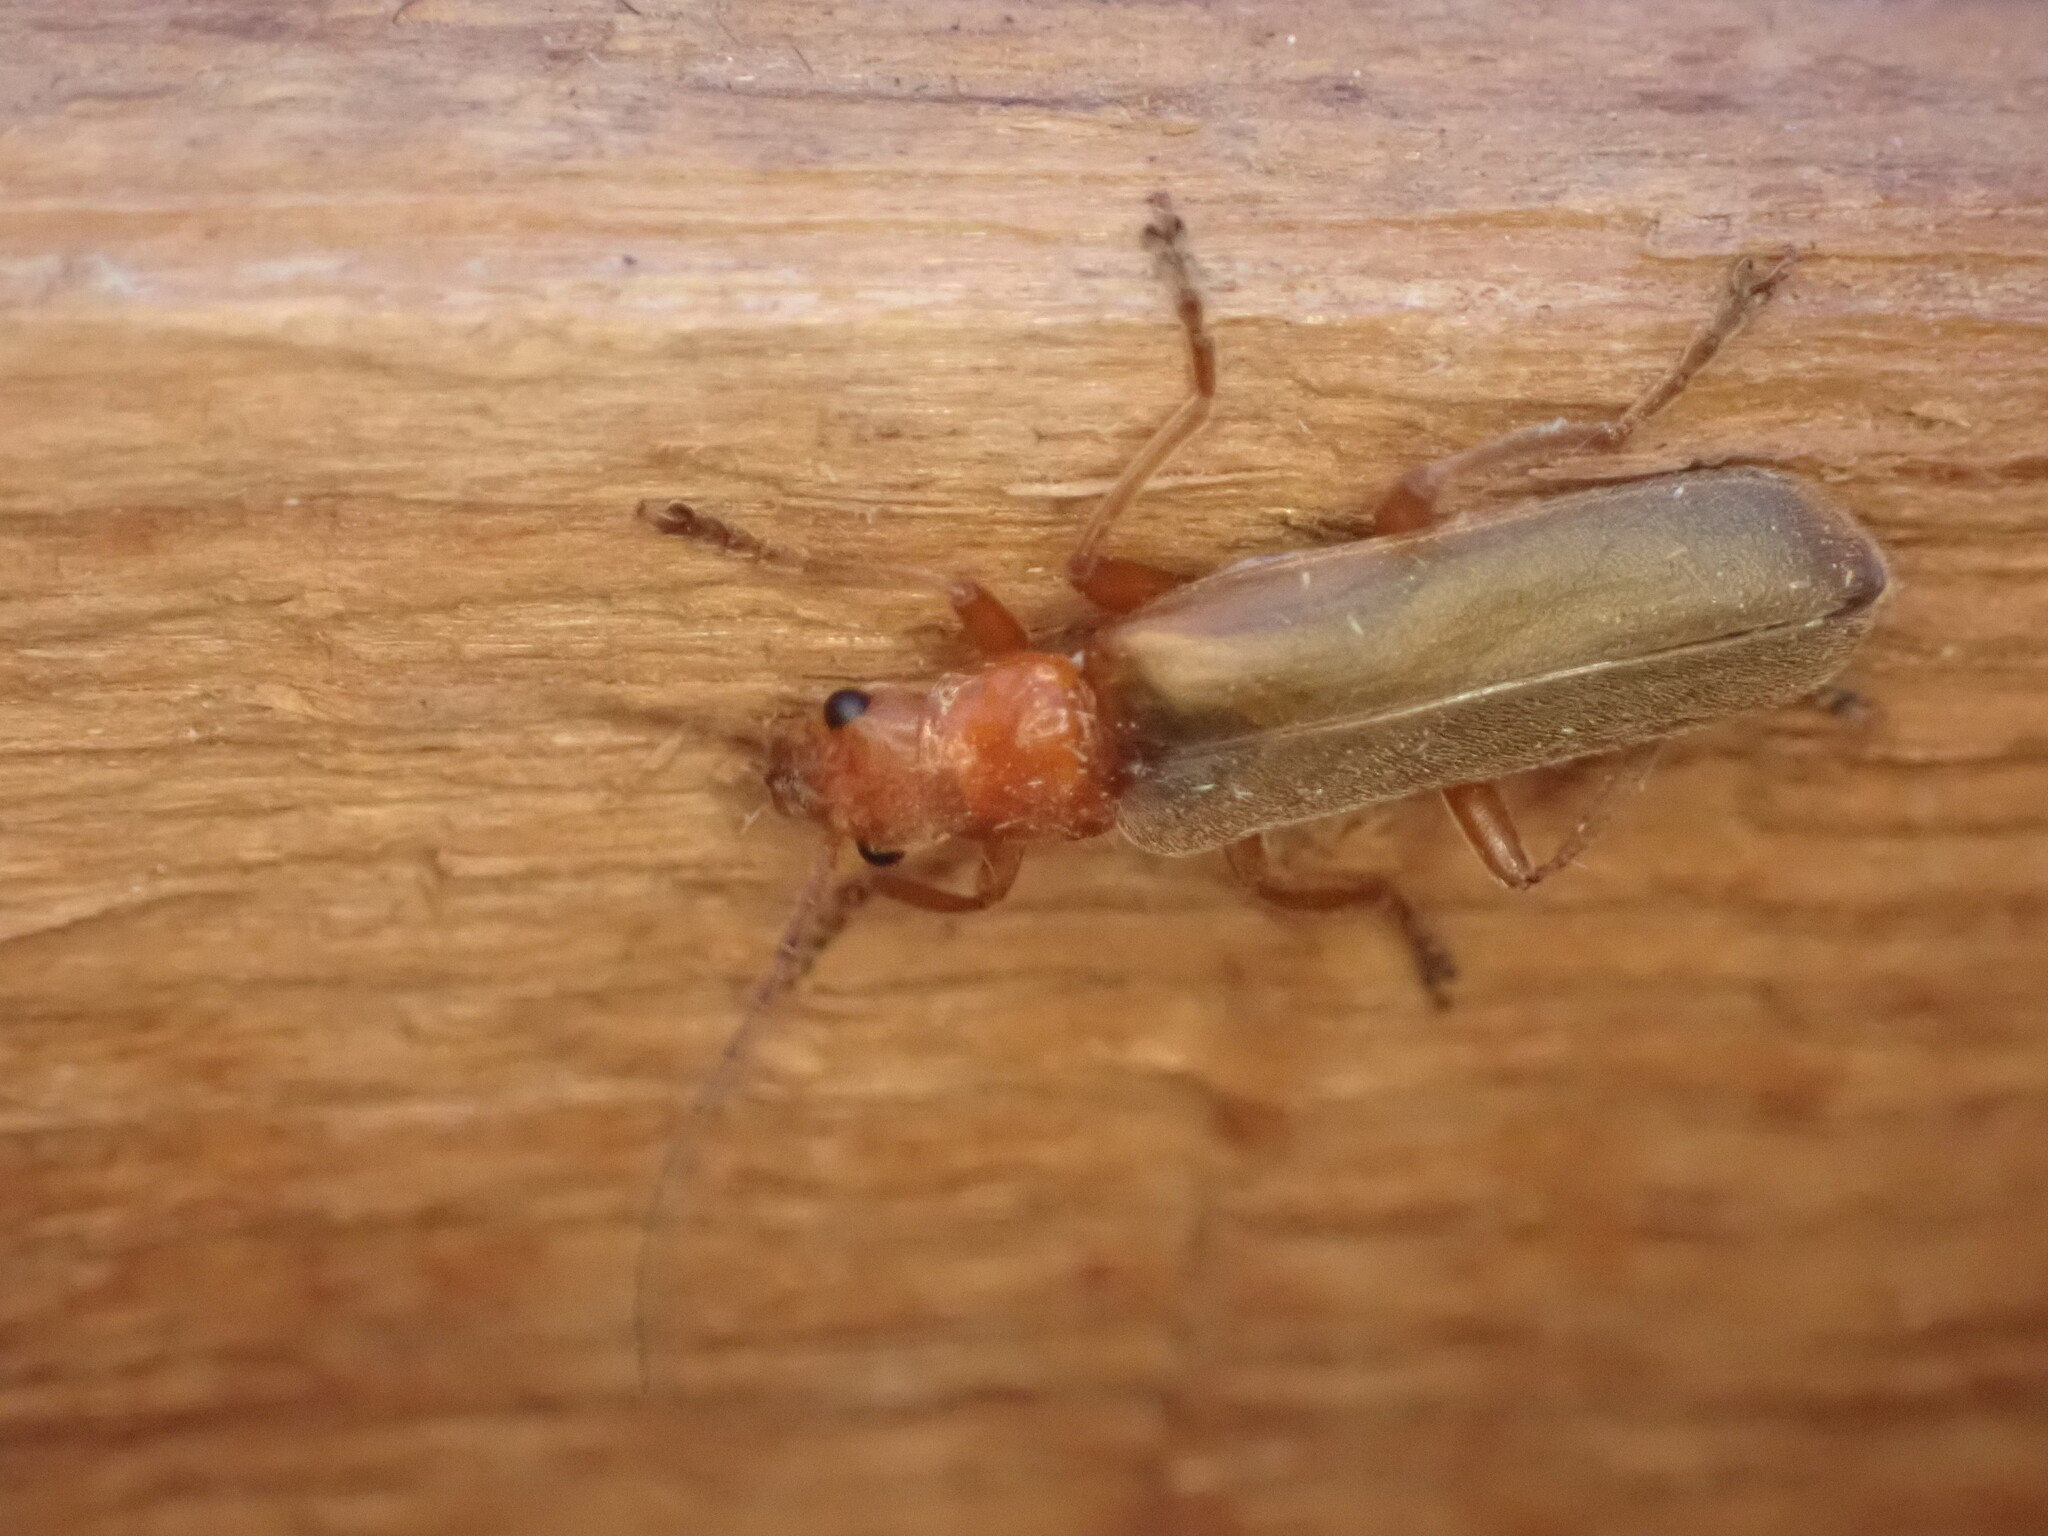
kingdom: Animalia
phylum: Arthropoda
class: Insecta
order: Coleoptera
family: Cantharidae
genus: Cantharis
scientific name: Cantharis rufa
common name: Red-spotted soldier beetle
